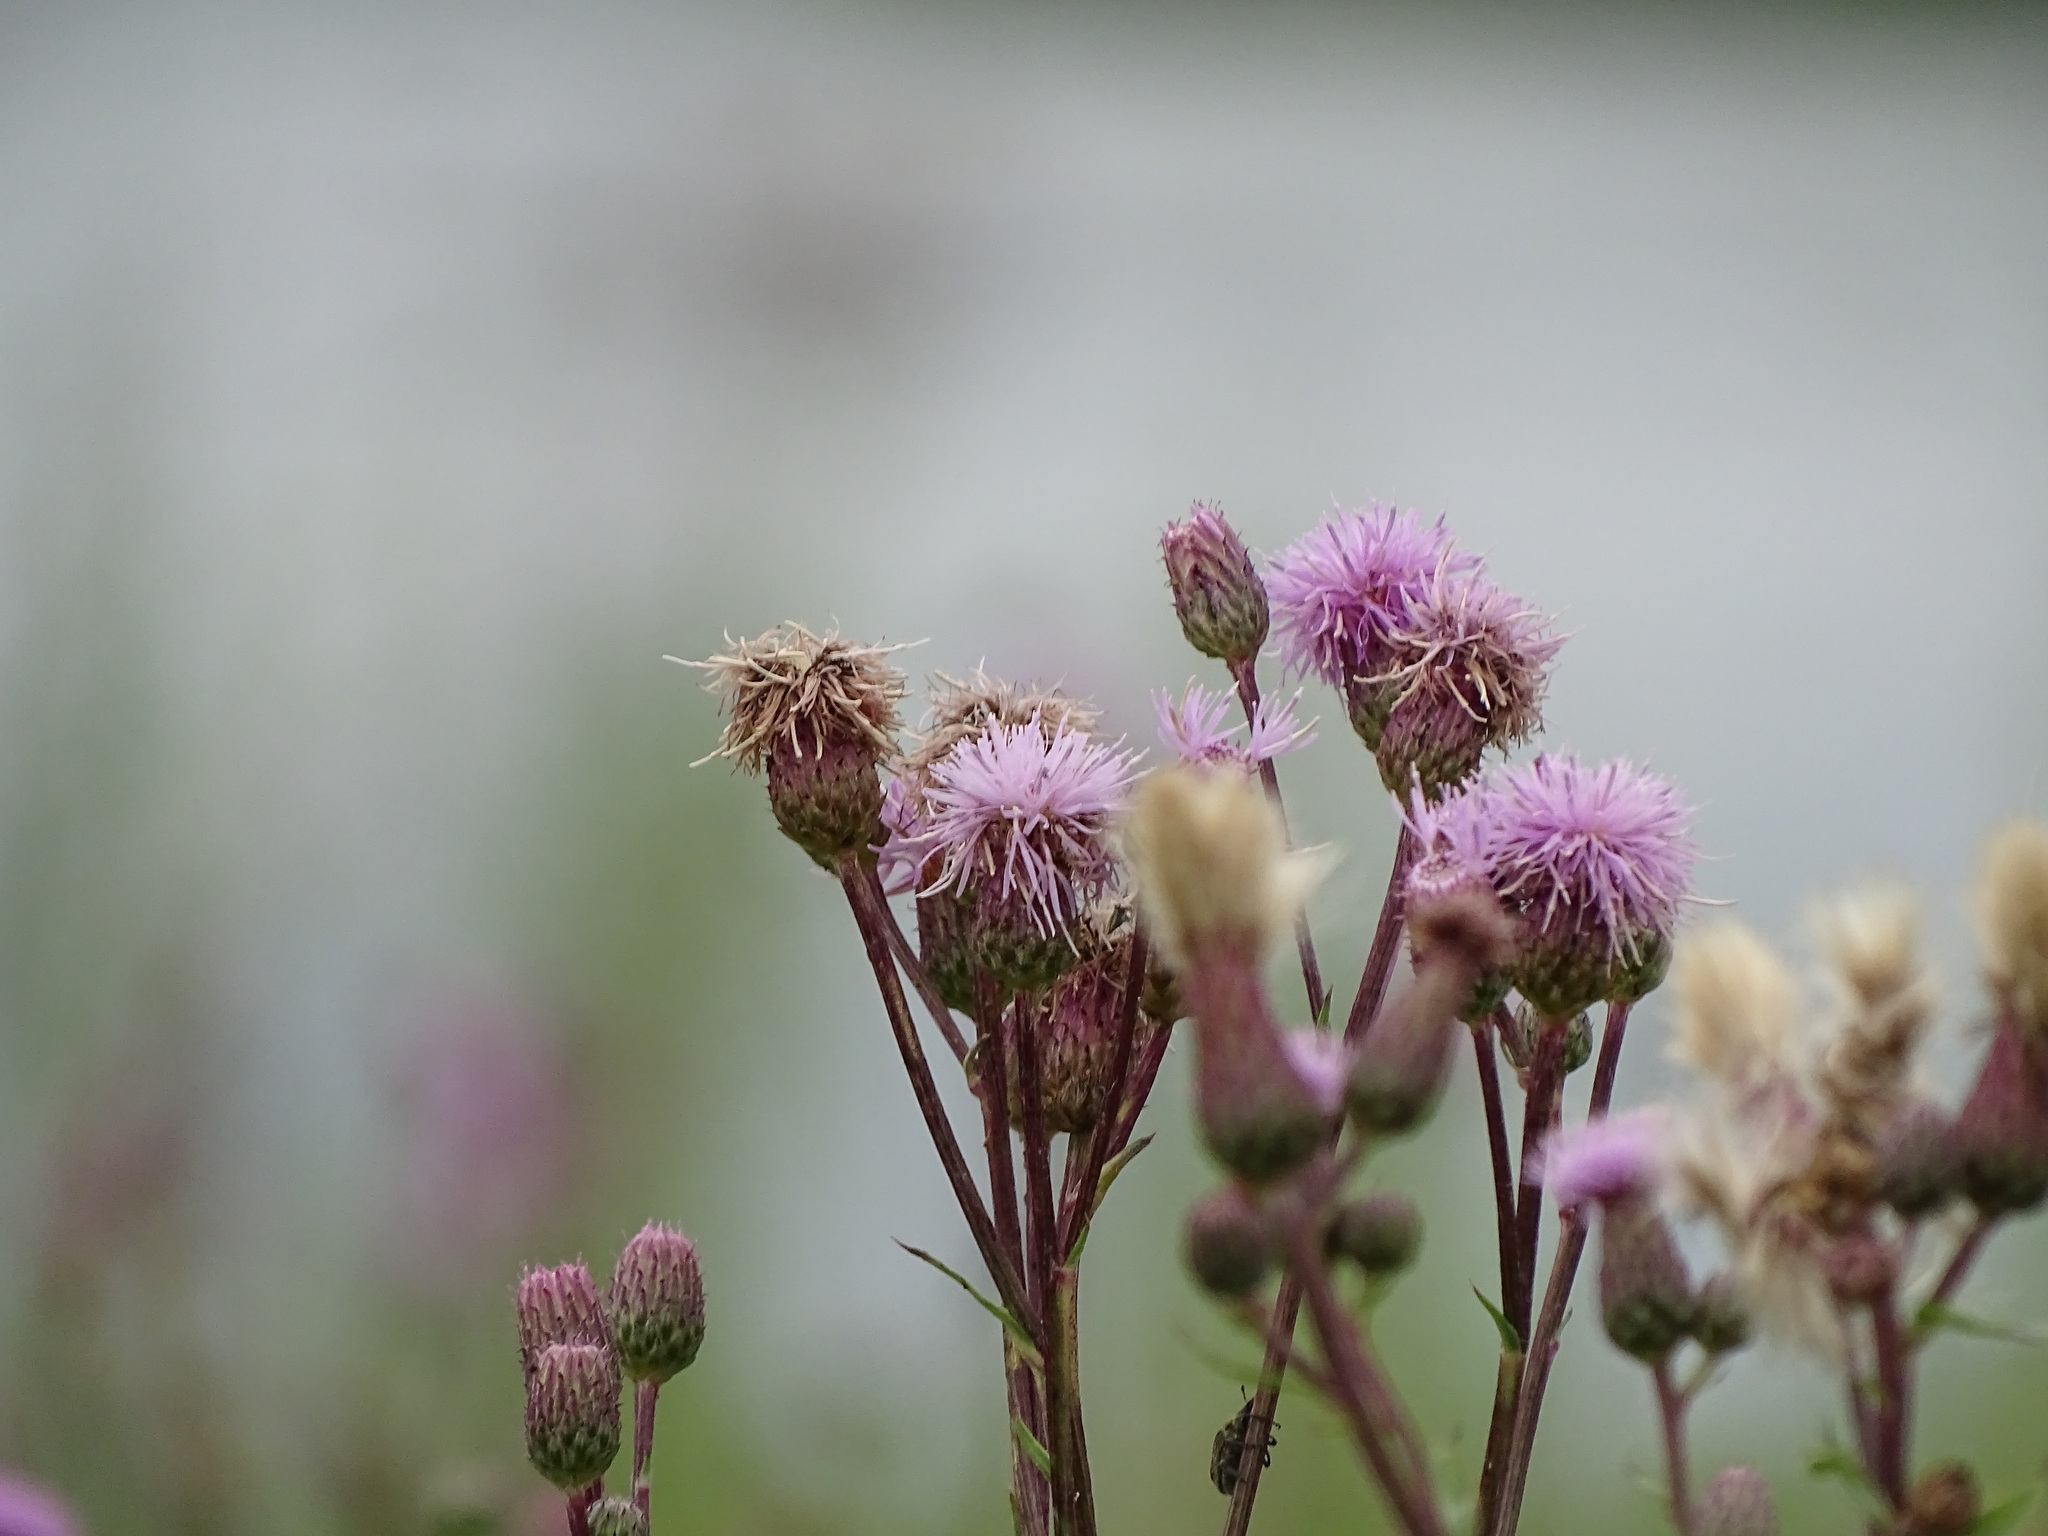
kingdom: Plantae
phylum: Tracheophyta
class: Magnoliopsida
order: Asterales
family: Asteraceae
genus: Cirsium
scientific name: Cirsium arvense
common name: Creeping thistle
